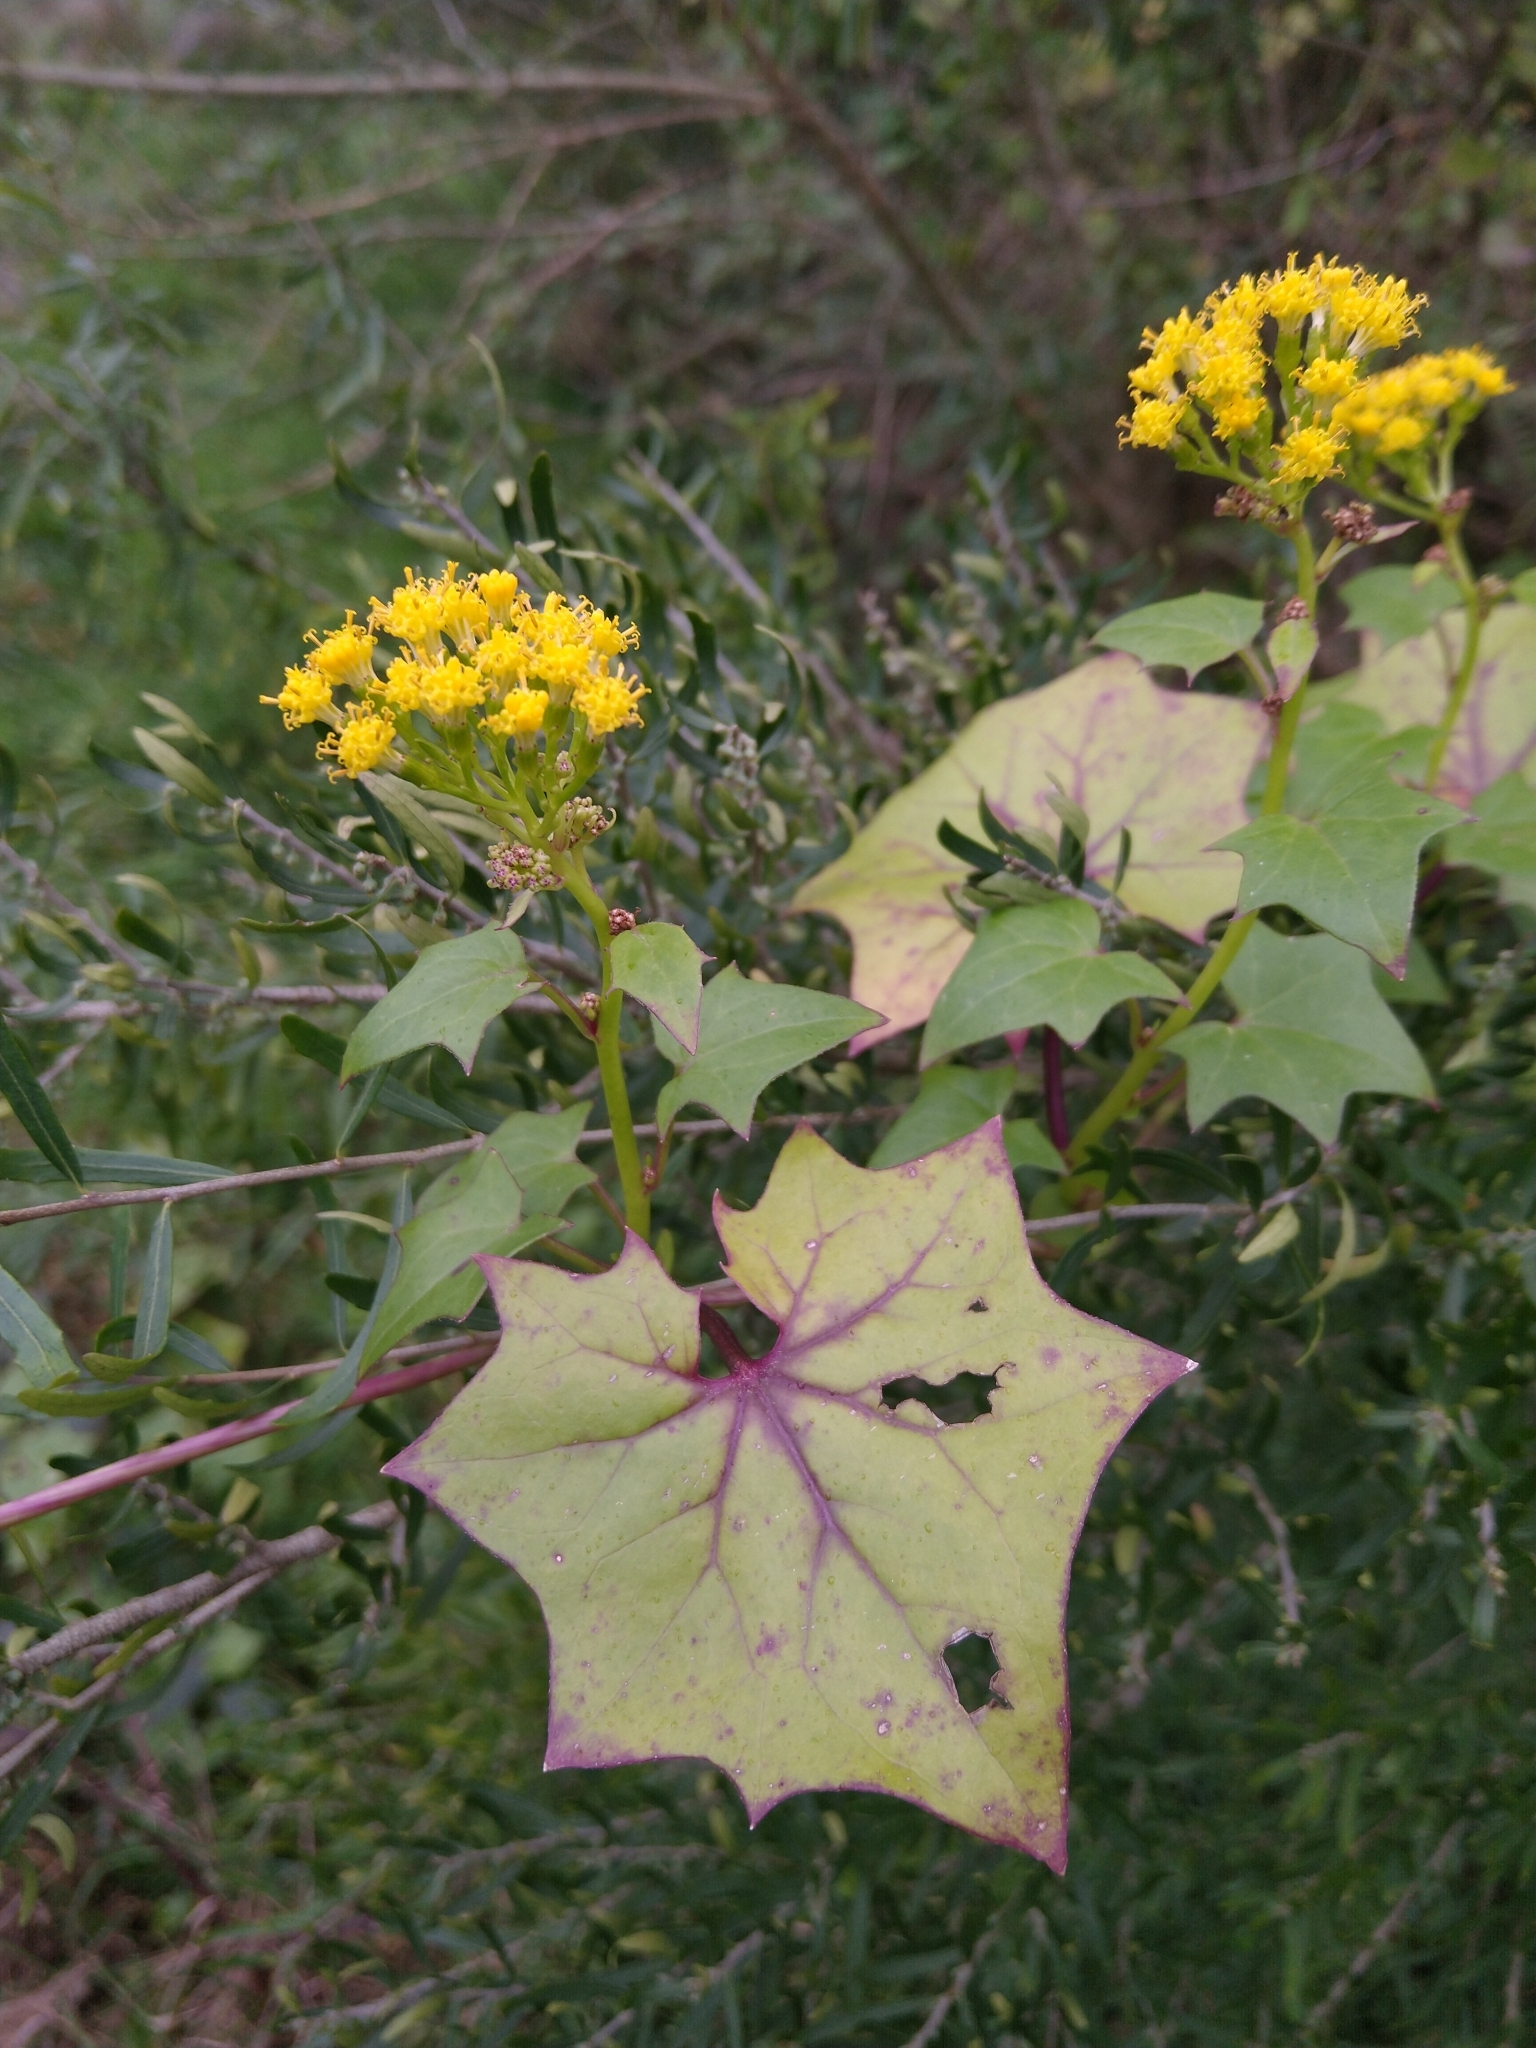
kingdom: Plantae
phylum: Tracheophyta
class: Magnoliopsida
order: Asterales
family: Asteraceae
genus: Delairea
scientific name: Delairea odorata
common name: Cape-ivy
